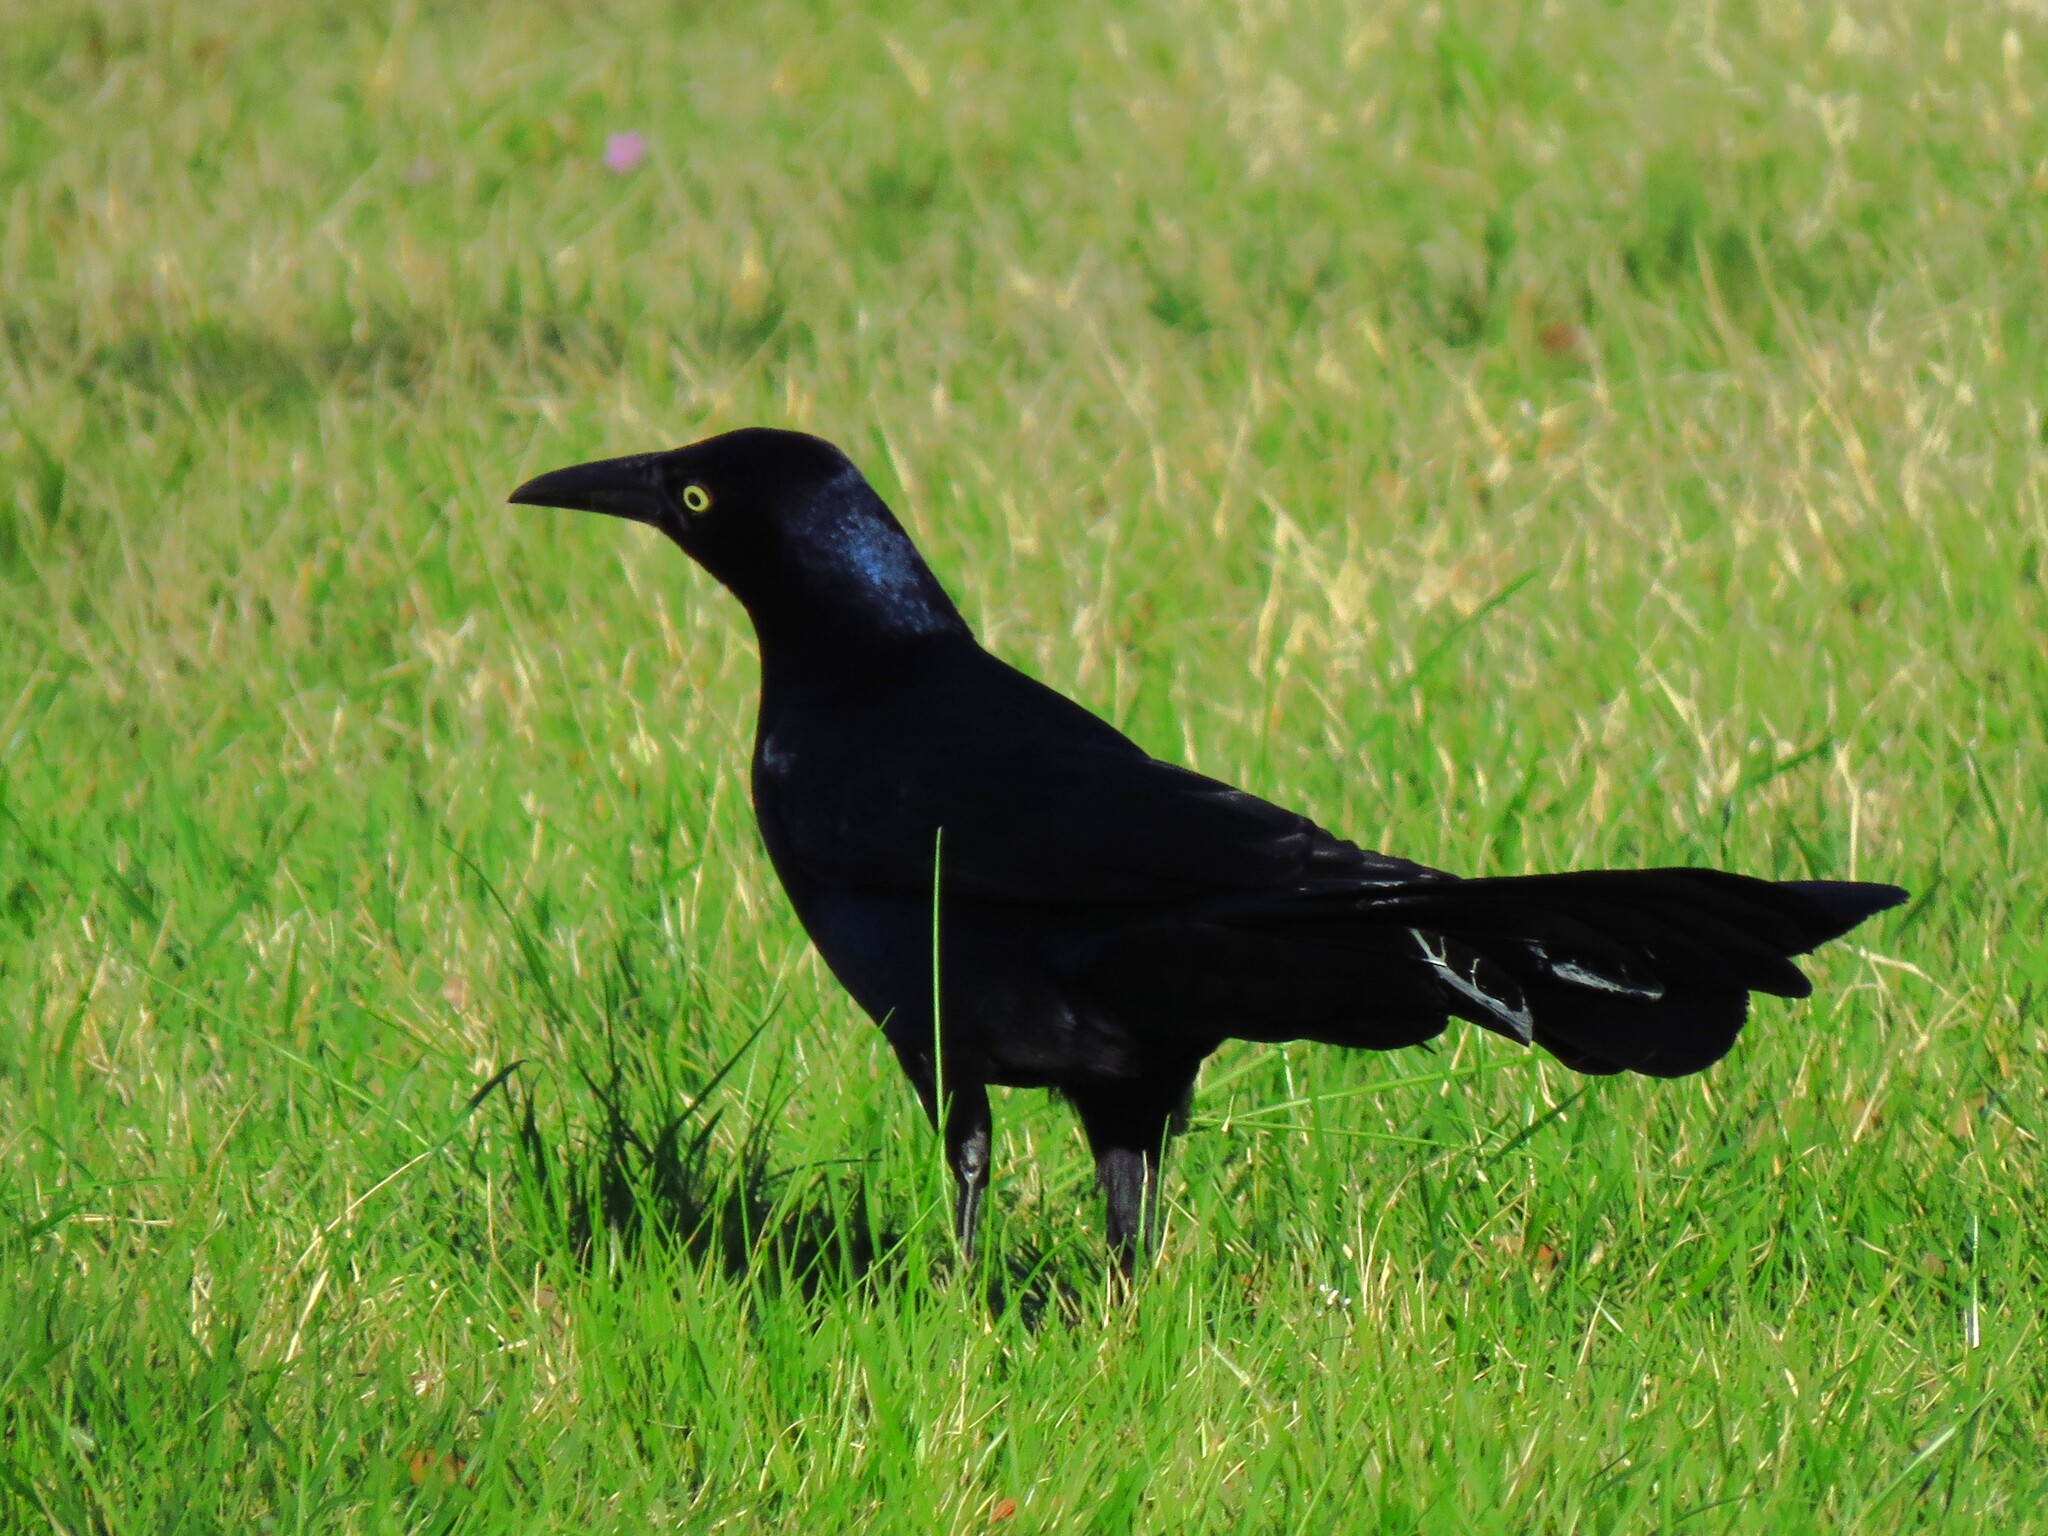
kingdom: Animalia
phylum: Chordata
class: Aves
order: Passeriformes
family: Icteridae
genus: Quiscalus
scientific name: Quiscalus mexicanus
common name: Great-tailed grackle
